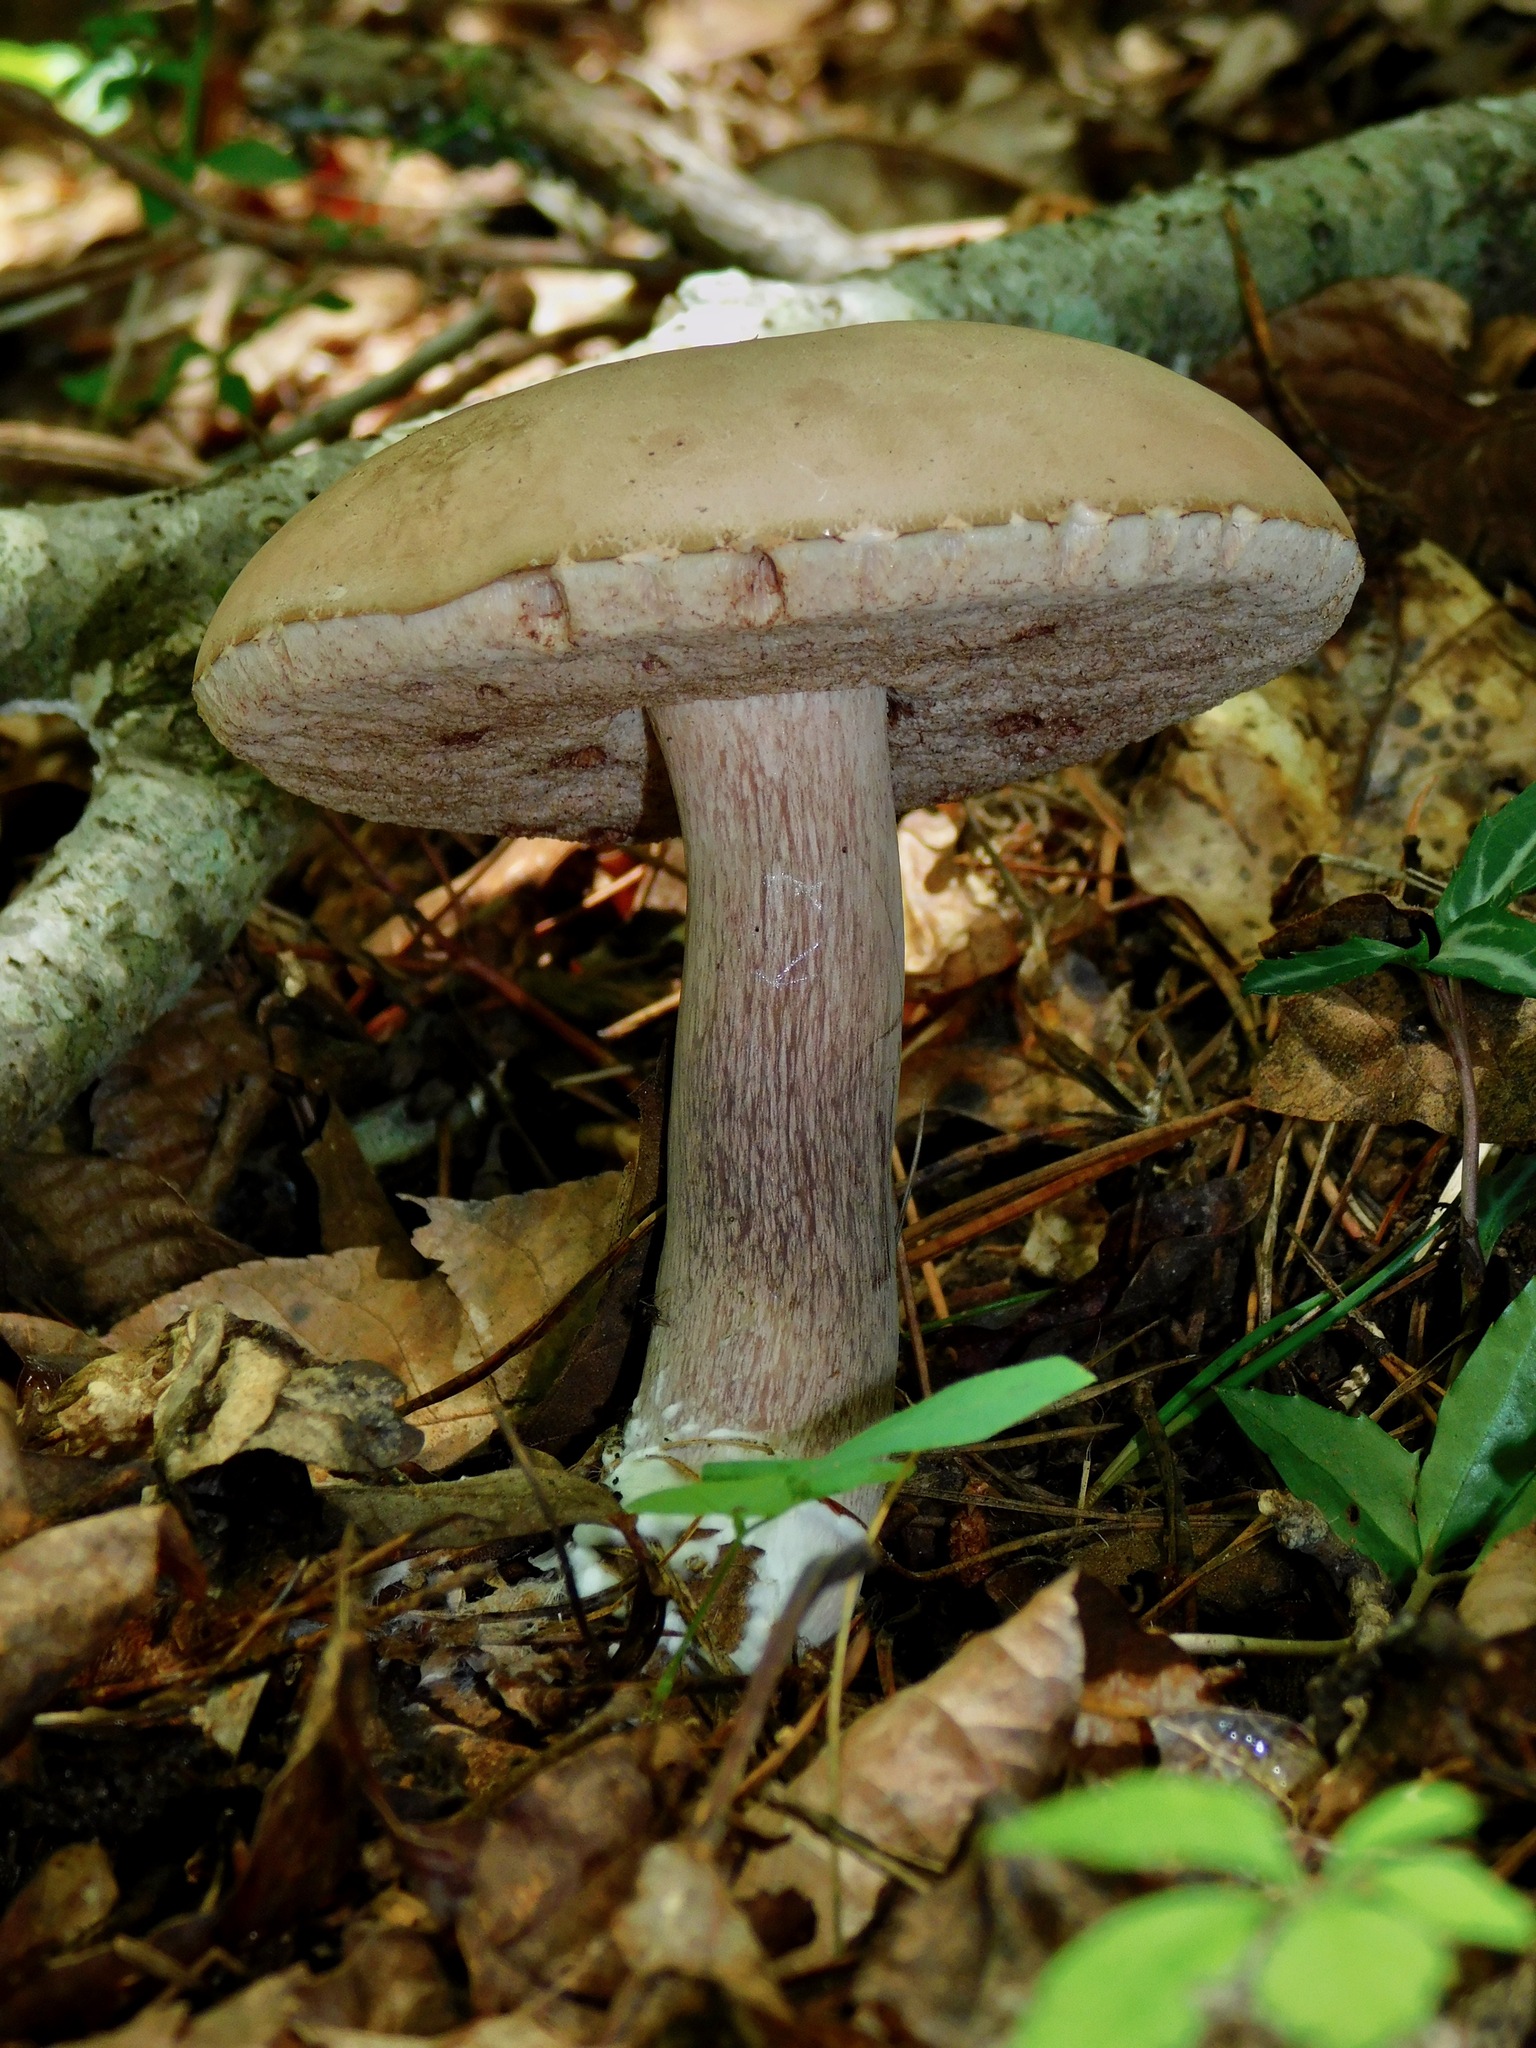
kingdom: Fungi
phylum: Basidiomycota
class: Agaricomycetes
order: Boletales
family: Boletaceae
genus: Tylopilus
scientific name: Tylopilus plumbeoviolaceus
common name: Violet gray bolete
